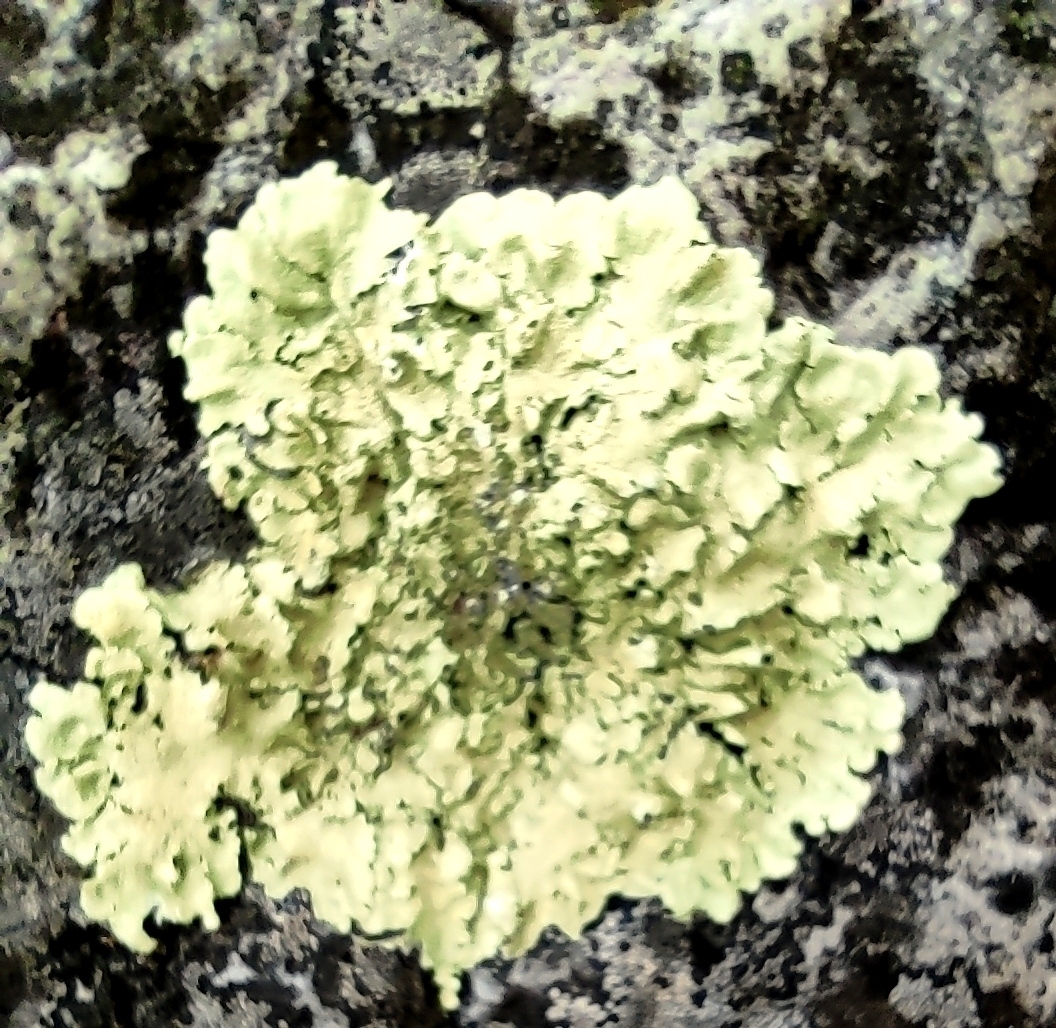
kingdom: Fungi
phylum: Ascomycota
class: Lecanoromycetes
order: Lecanorales
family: Parmeliaceae
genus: Flavoparmelia
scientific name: Flavoparmelia caperata
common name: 40-mile per hour lichen
